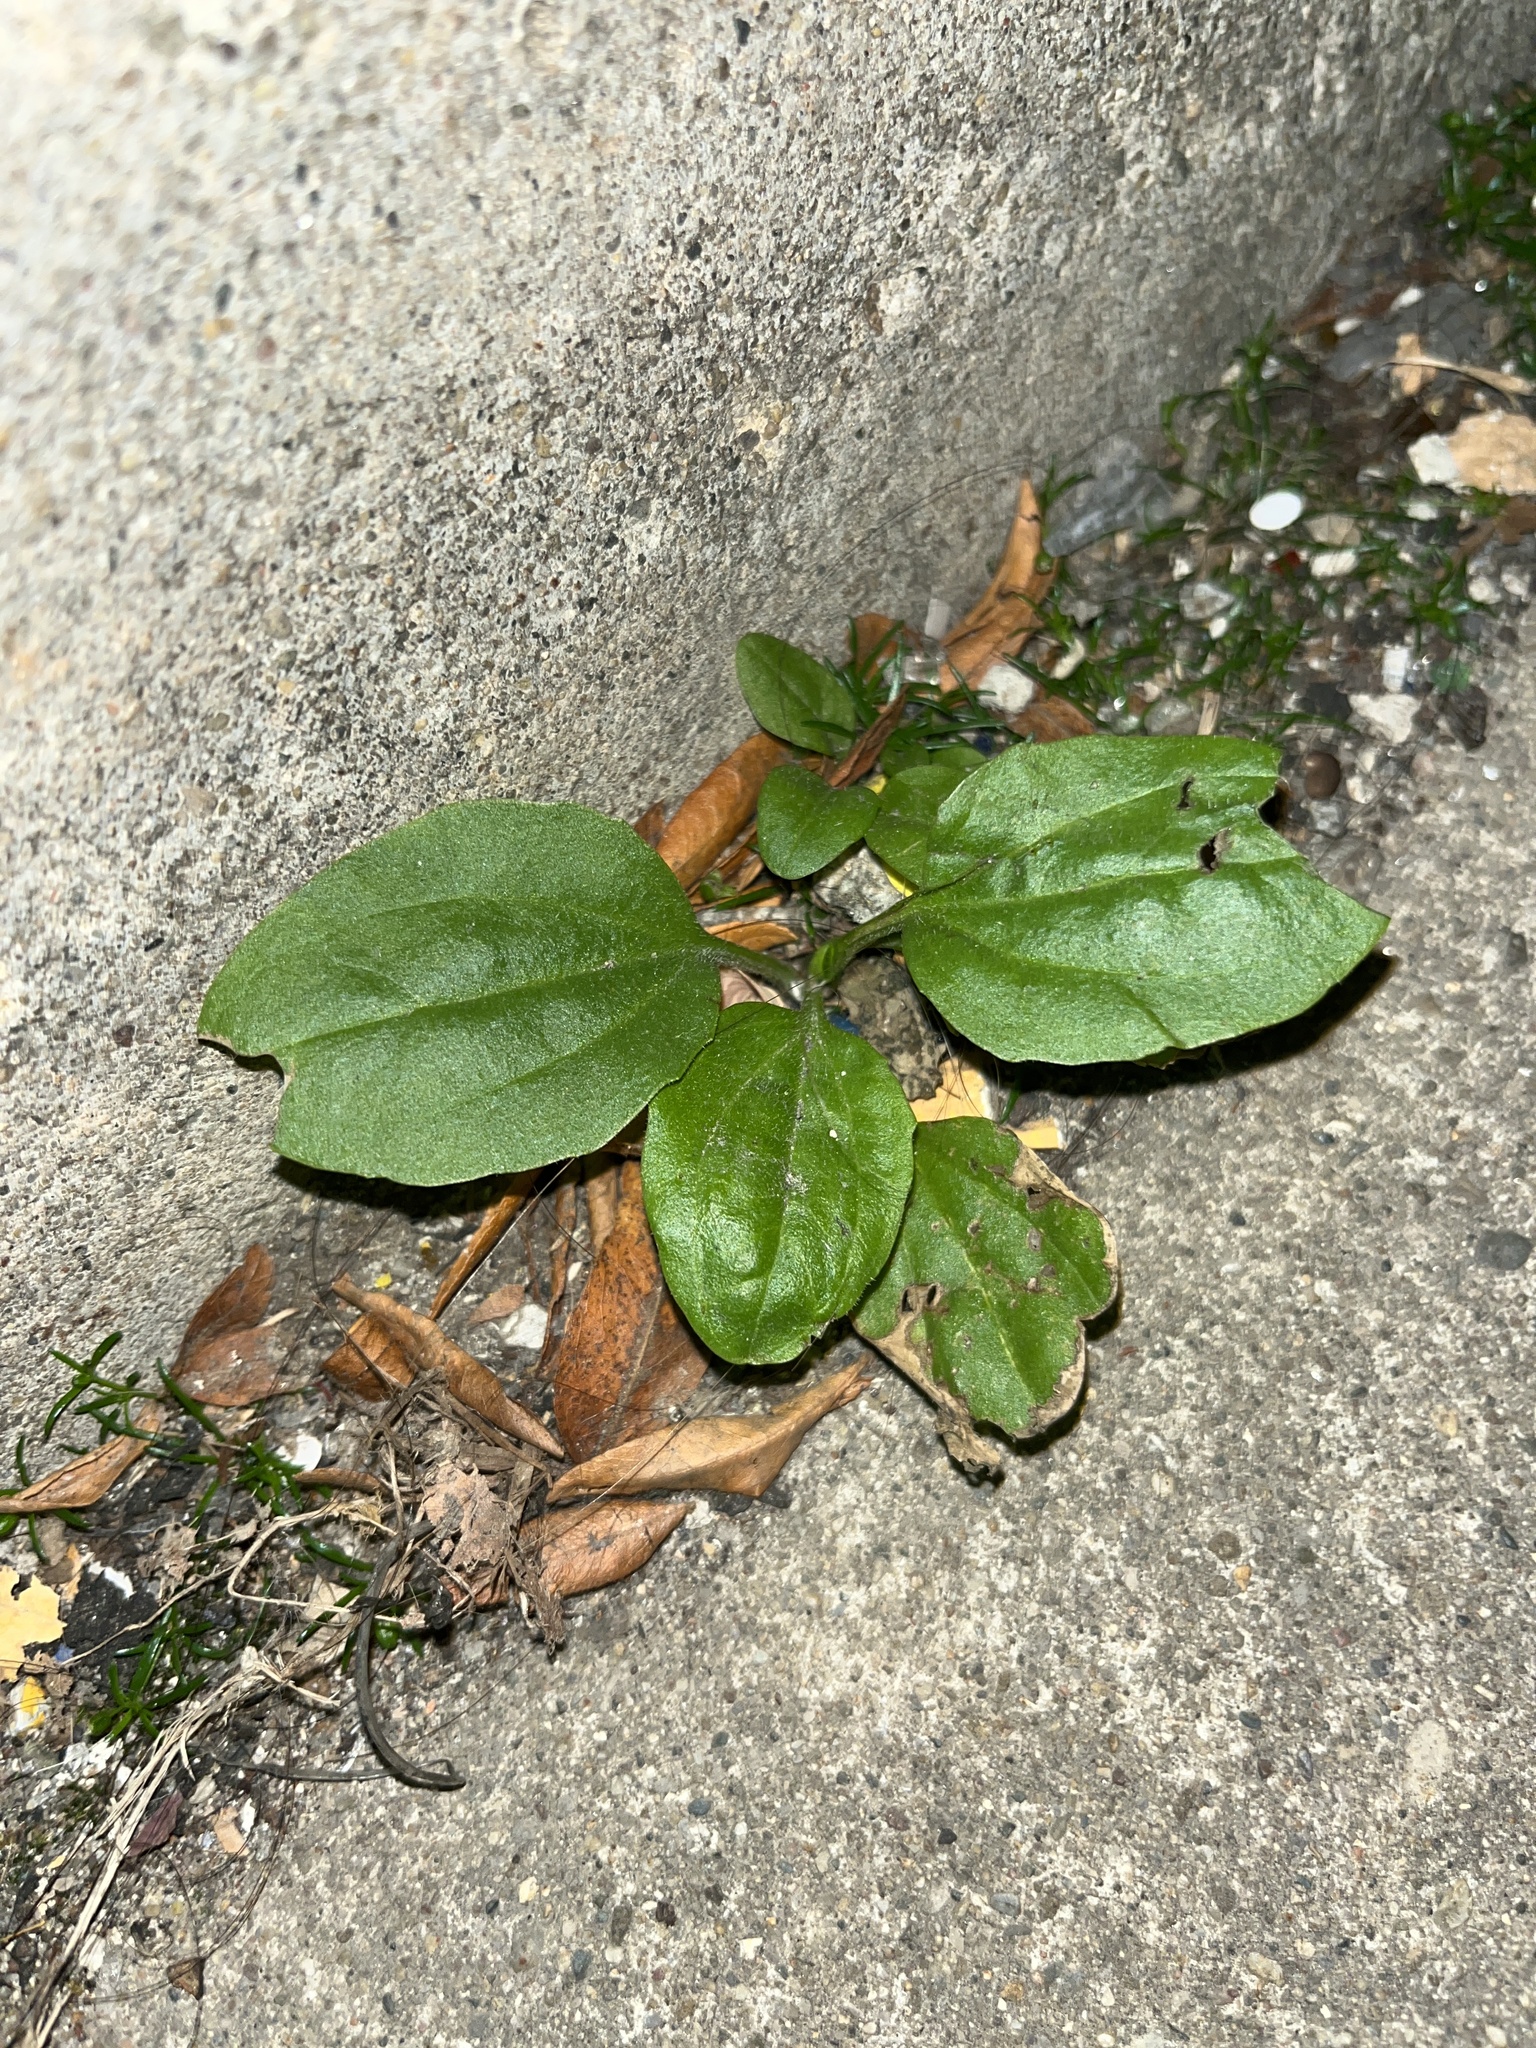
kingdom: Plantae
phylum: Tracheophyta
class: Magnoliopsida
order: Lamiales
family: Plantaginaceae
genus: Plantago
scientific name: Plantago major
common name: Common plantain
